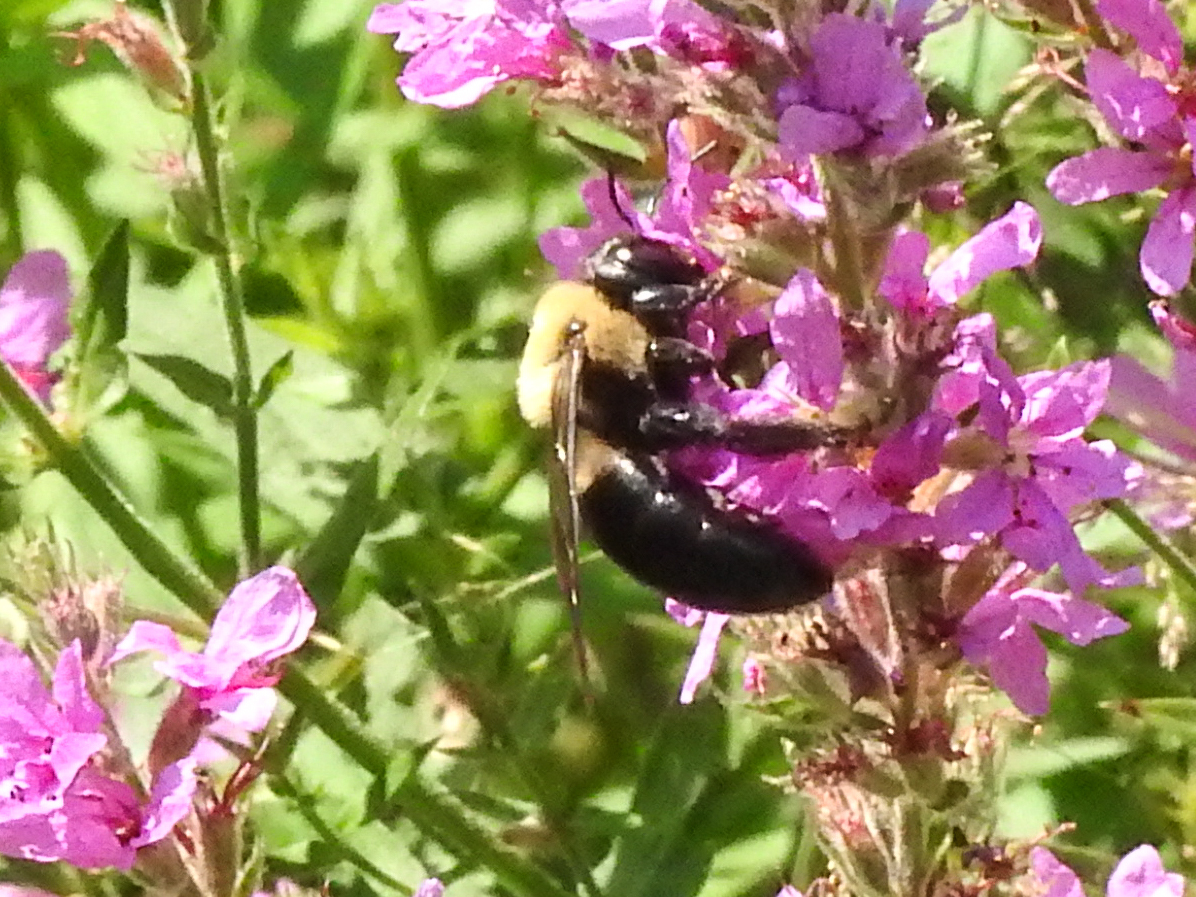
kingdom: Animalia
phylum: Arthropoda
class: Insecta
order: Hymenoptera
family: Apidae
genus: Xylocopa
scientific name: Xylocopa virginica
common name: Carpenter bee
